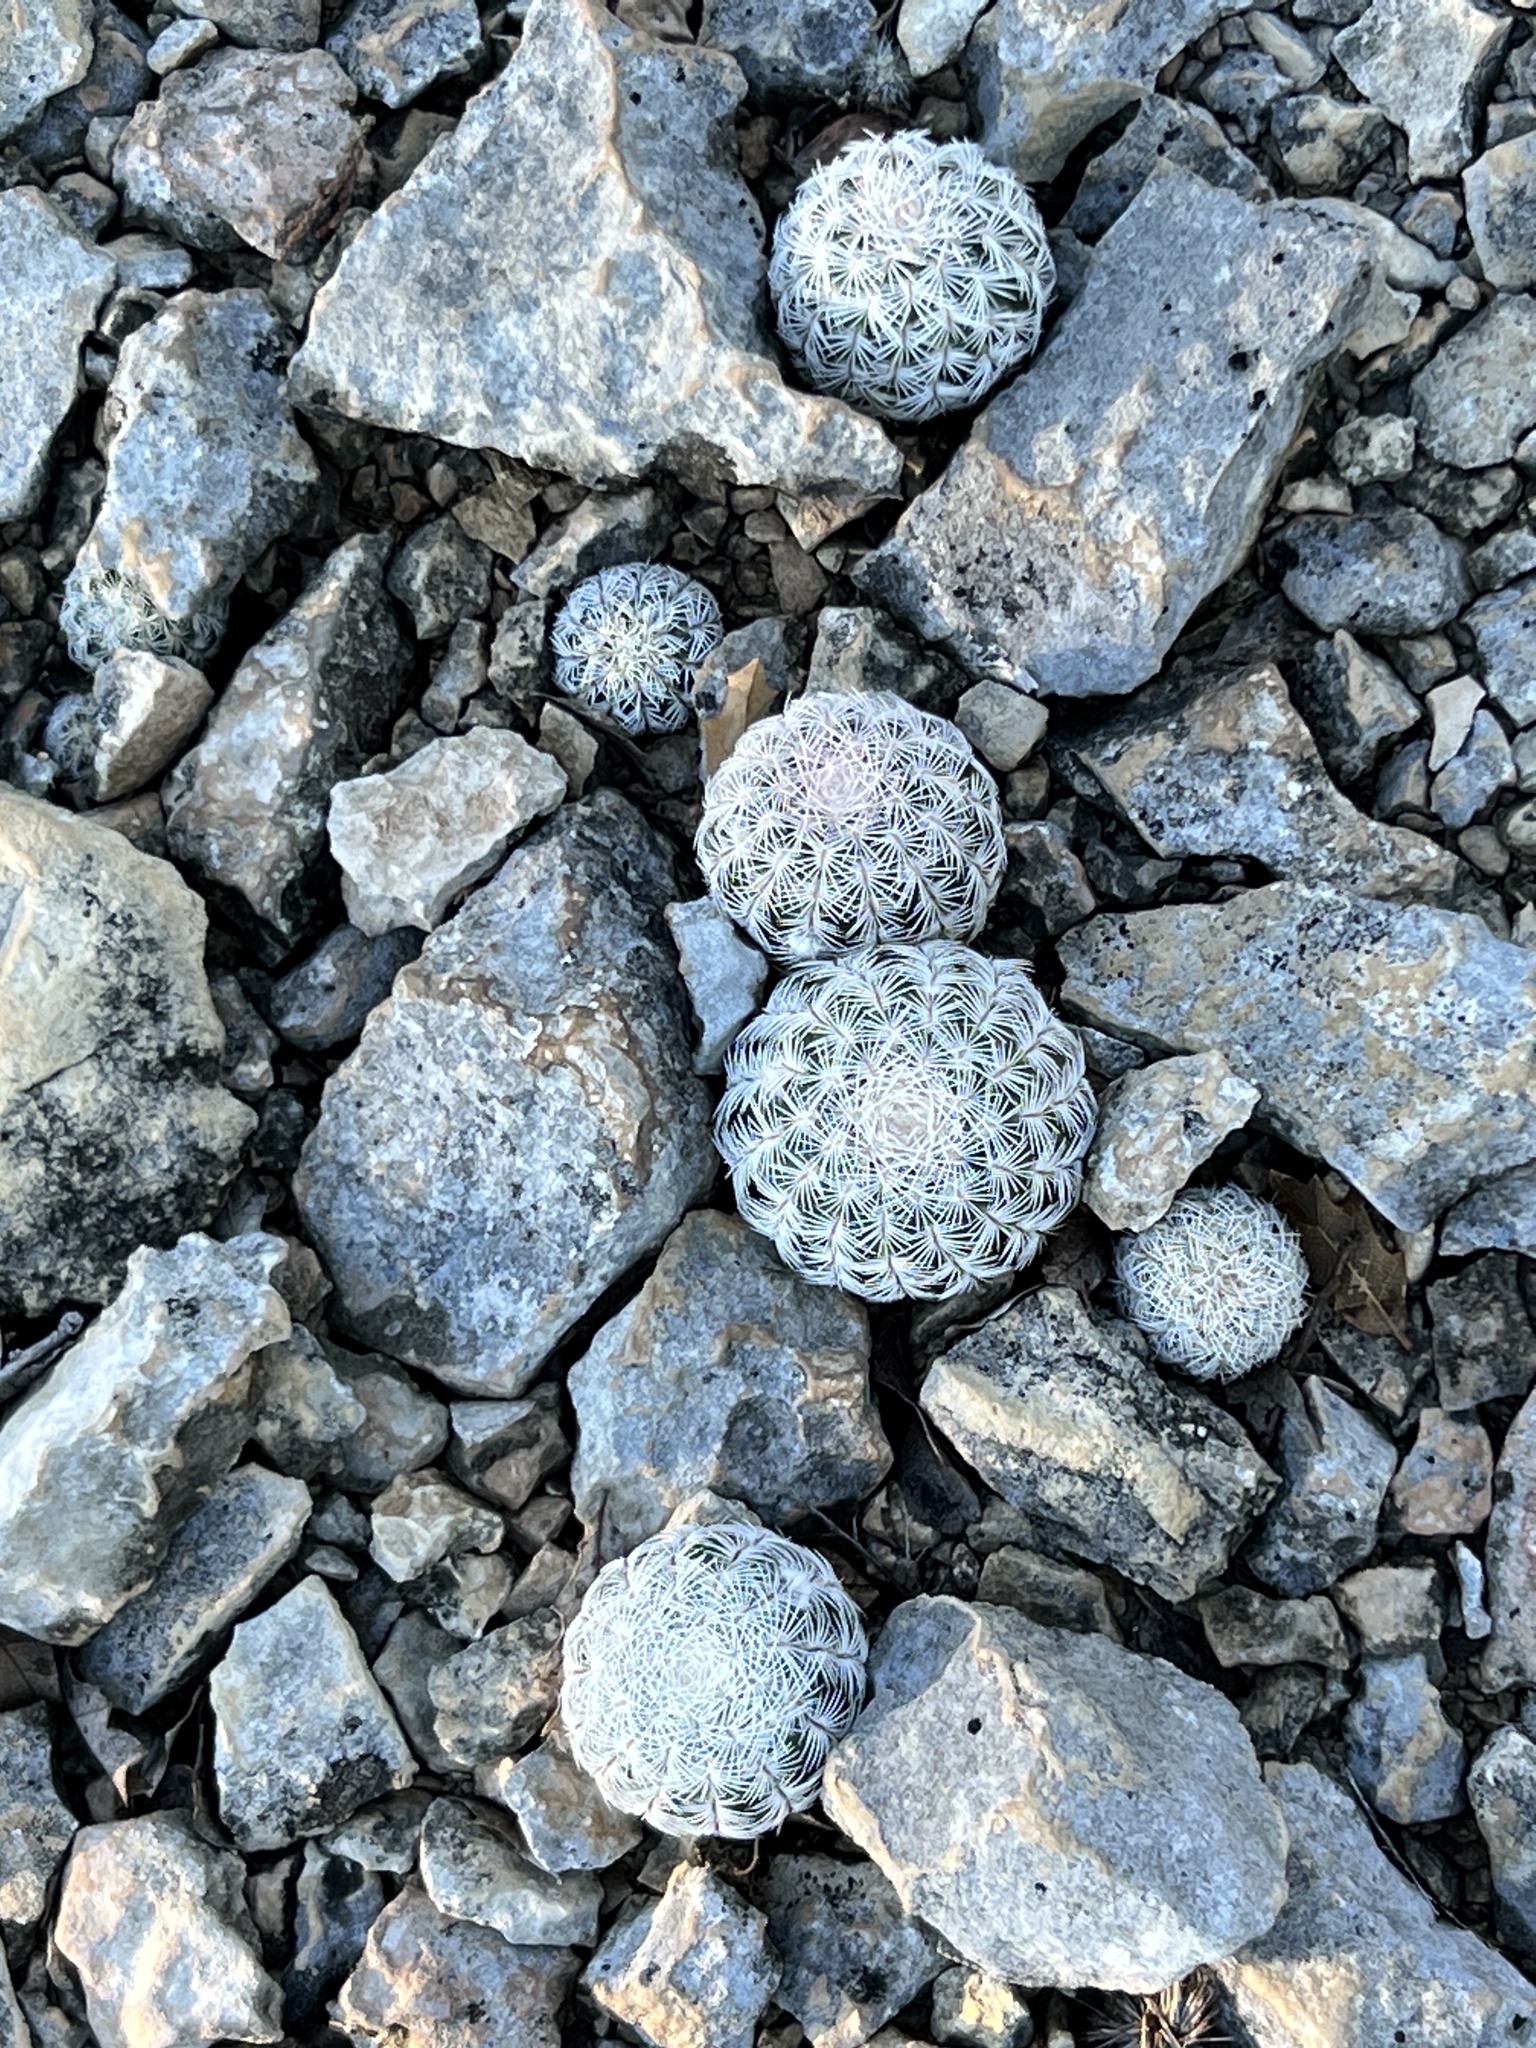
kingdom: Plantae
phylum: Tracheophyta
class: Magnoliopsida
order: Caryophyllales
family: Cactaceae
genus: Echinocereus
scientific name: Echinocereus reichenbachii
